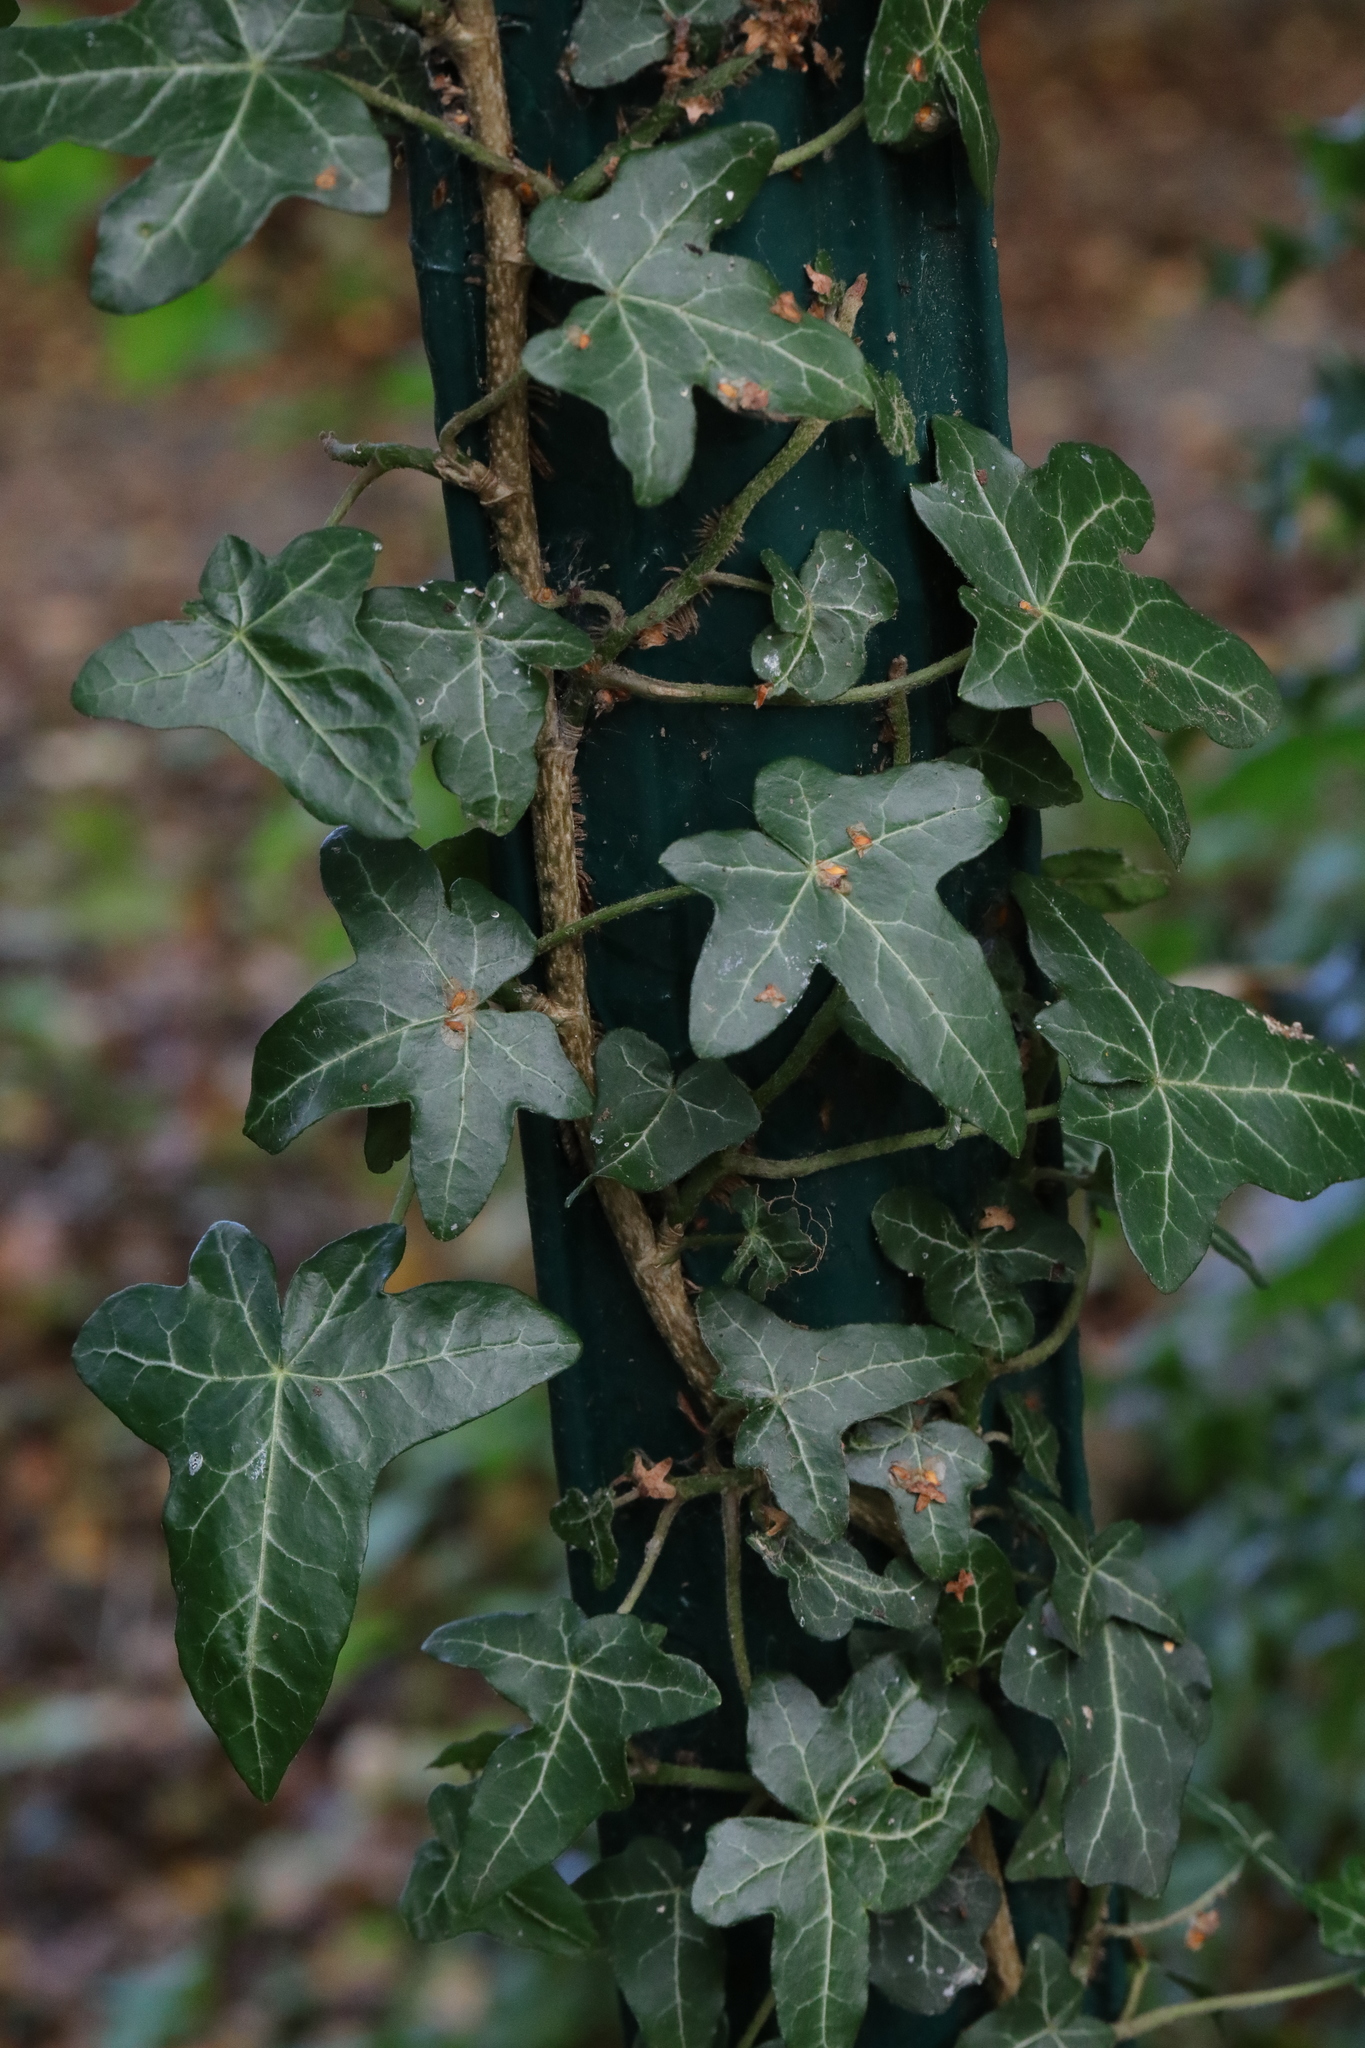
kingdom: Plantae
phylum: Tracheophyta
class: Magnoliopsida
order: Apiales
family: Araliaceae
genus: Hedera
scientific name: Hedera helix
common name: Ivy
